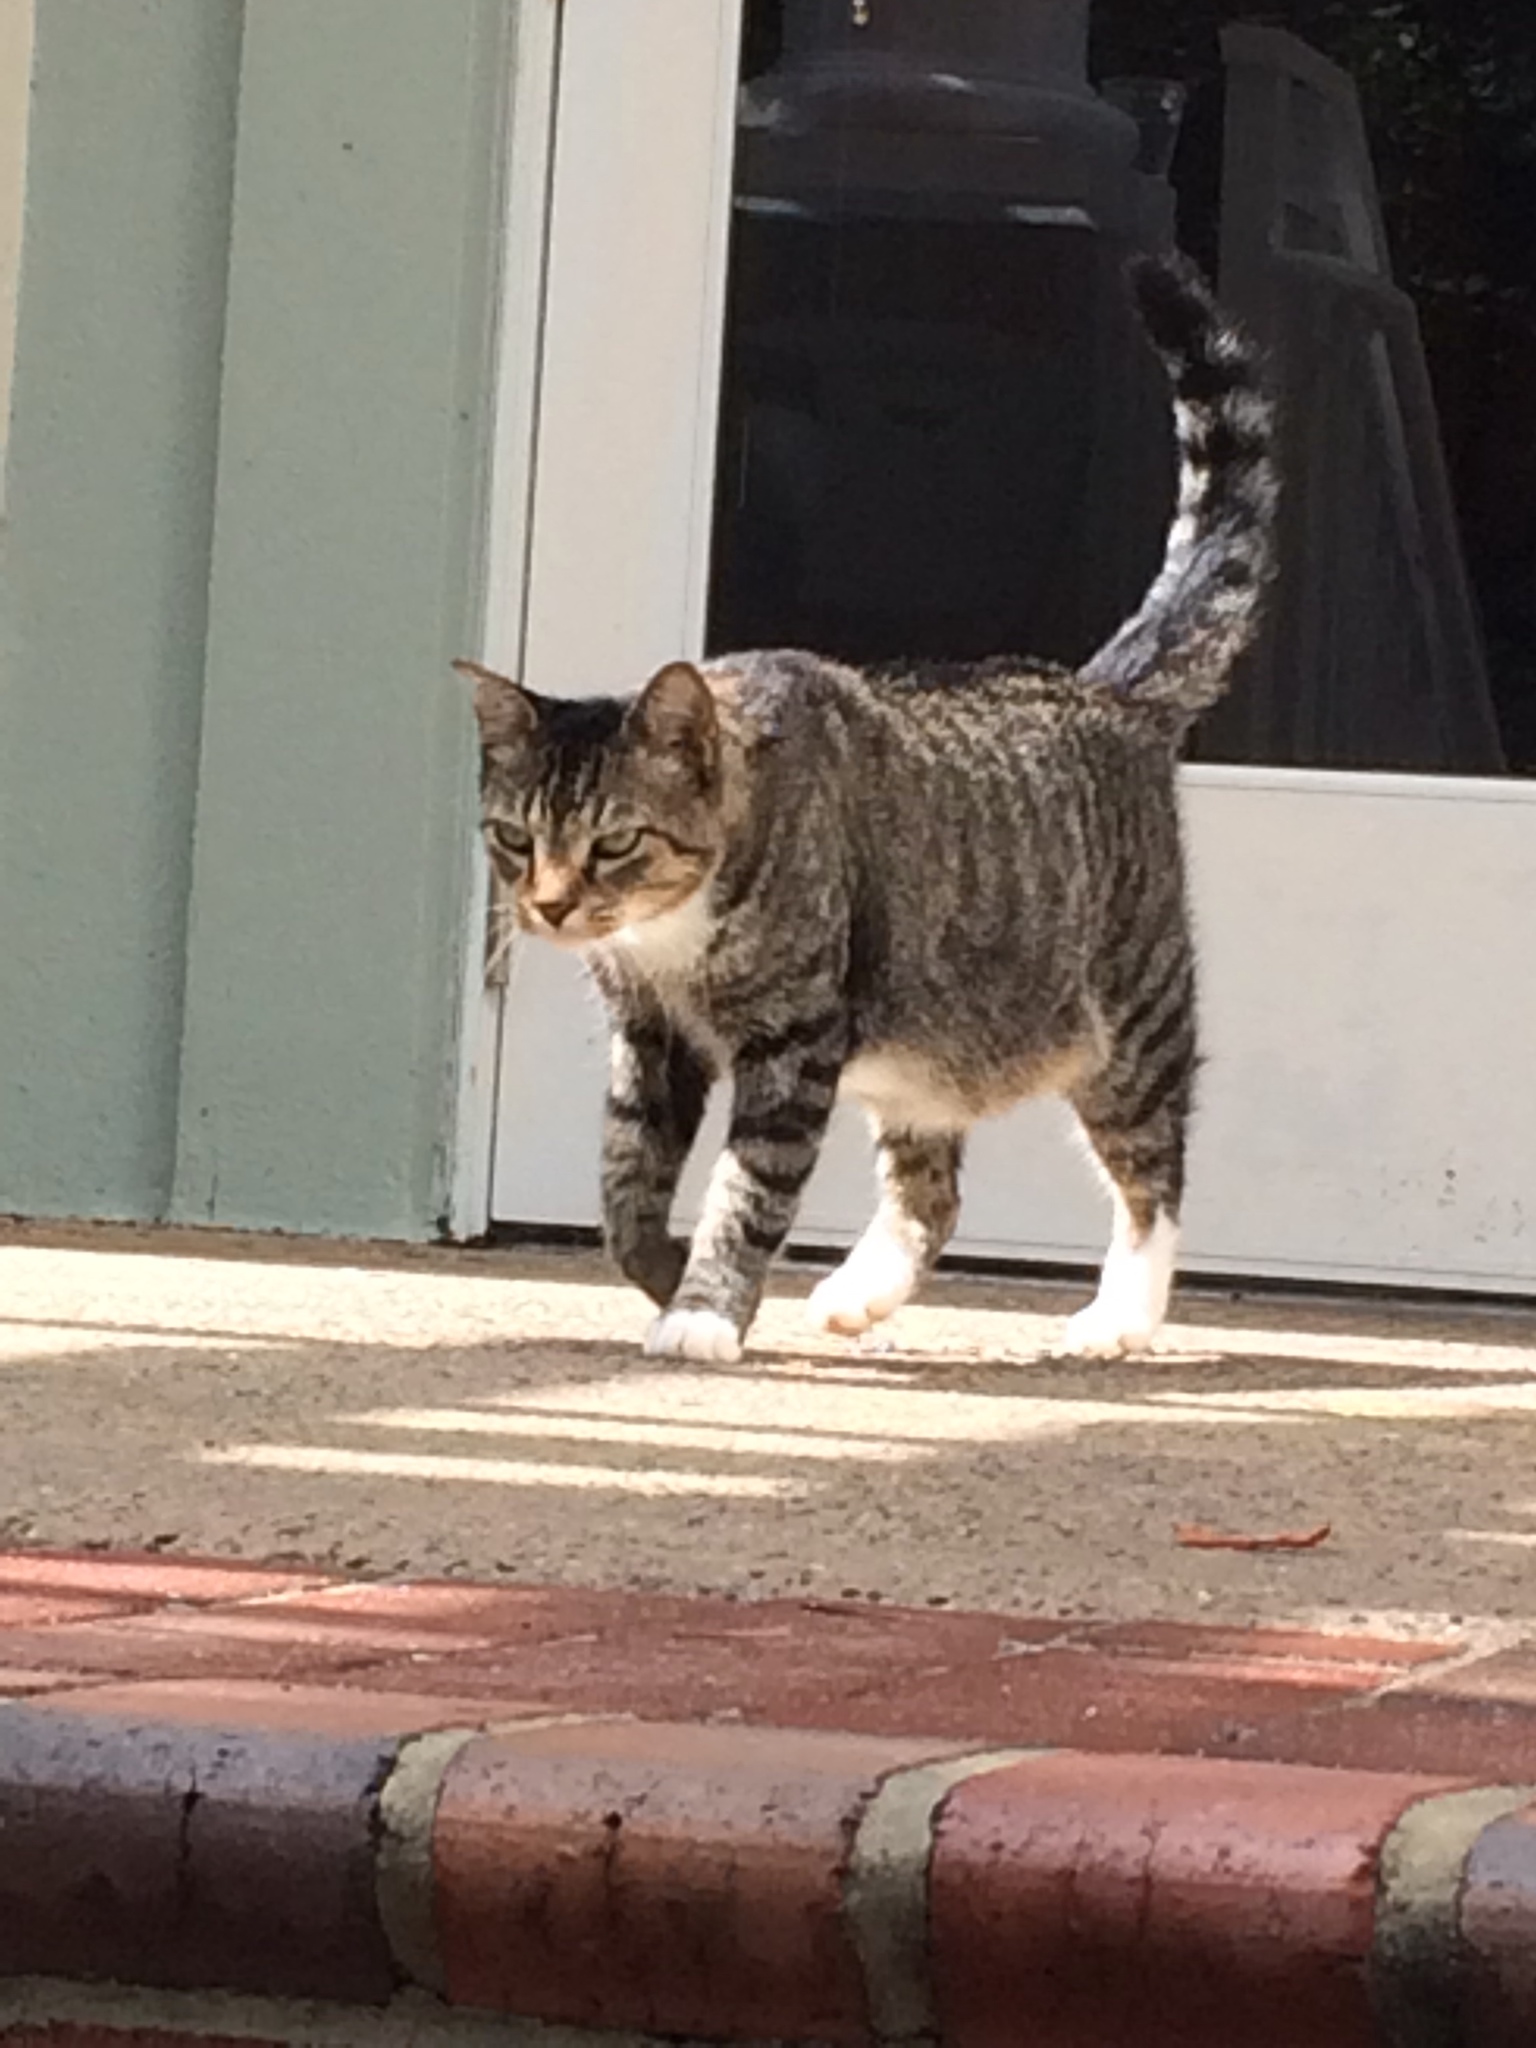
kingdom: Animalia
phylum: Chordata
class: Mammalia
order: Carnivora
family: Felidae
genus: Felis
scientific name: Felis catus
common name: Domestic cat
